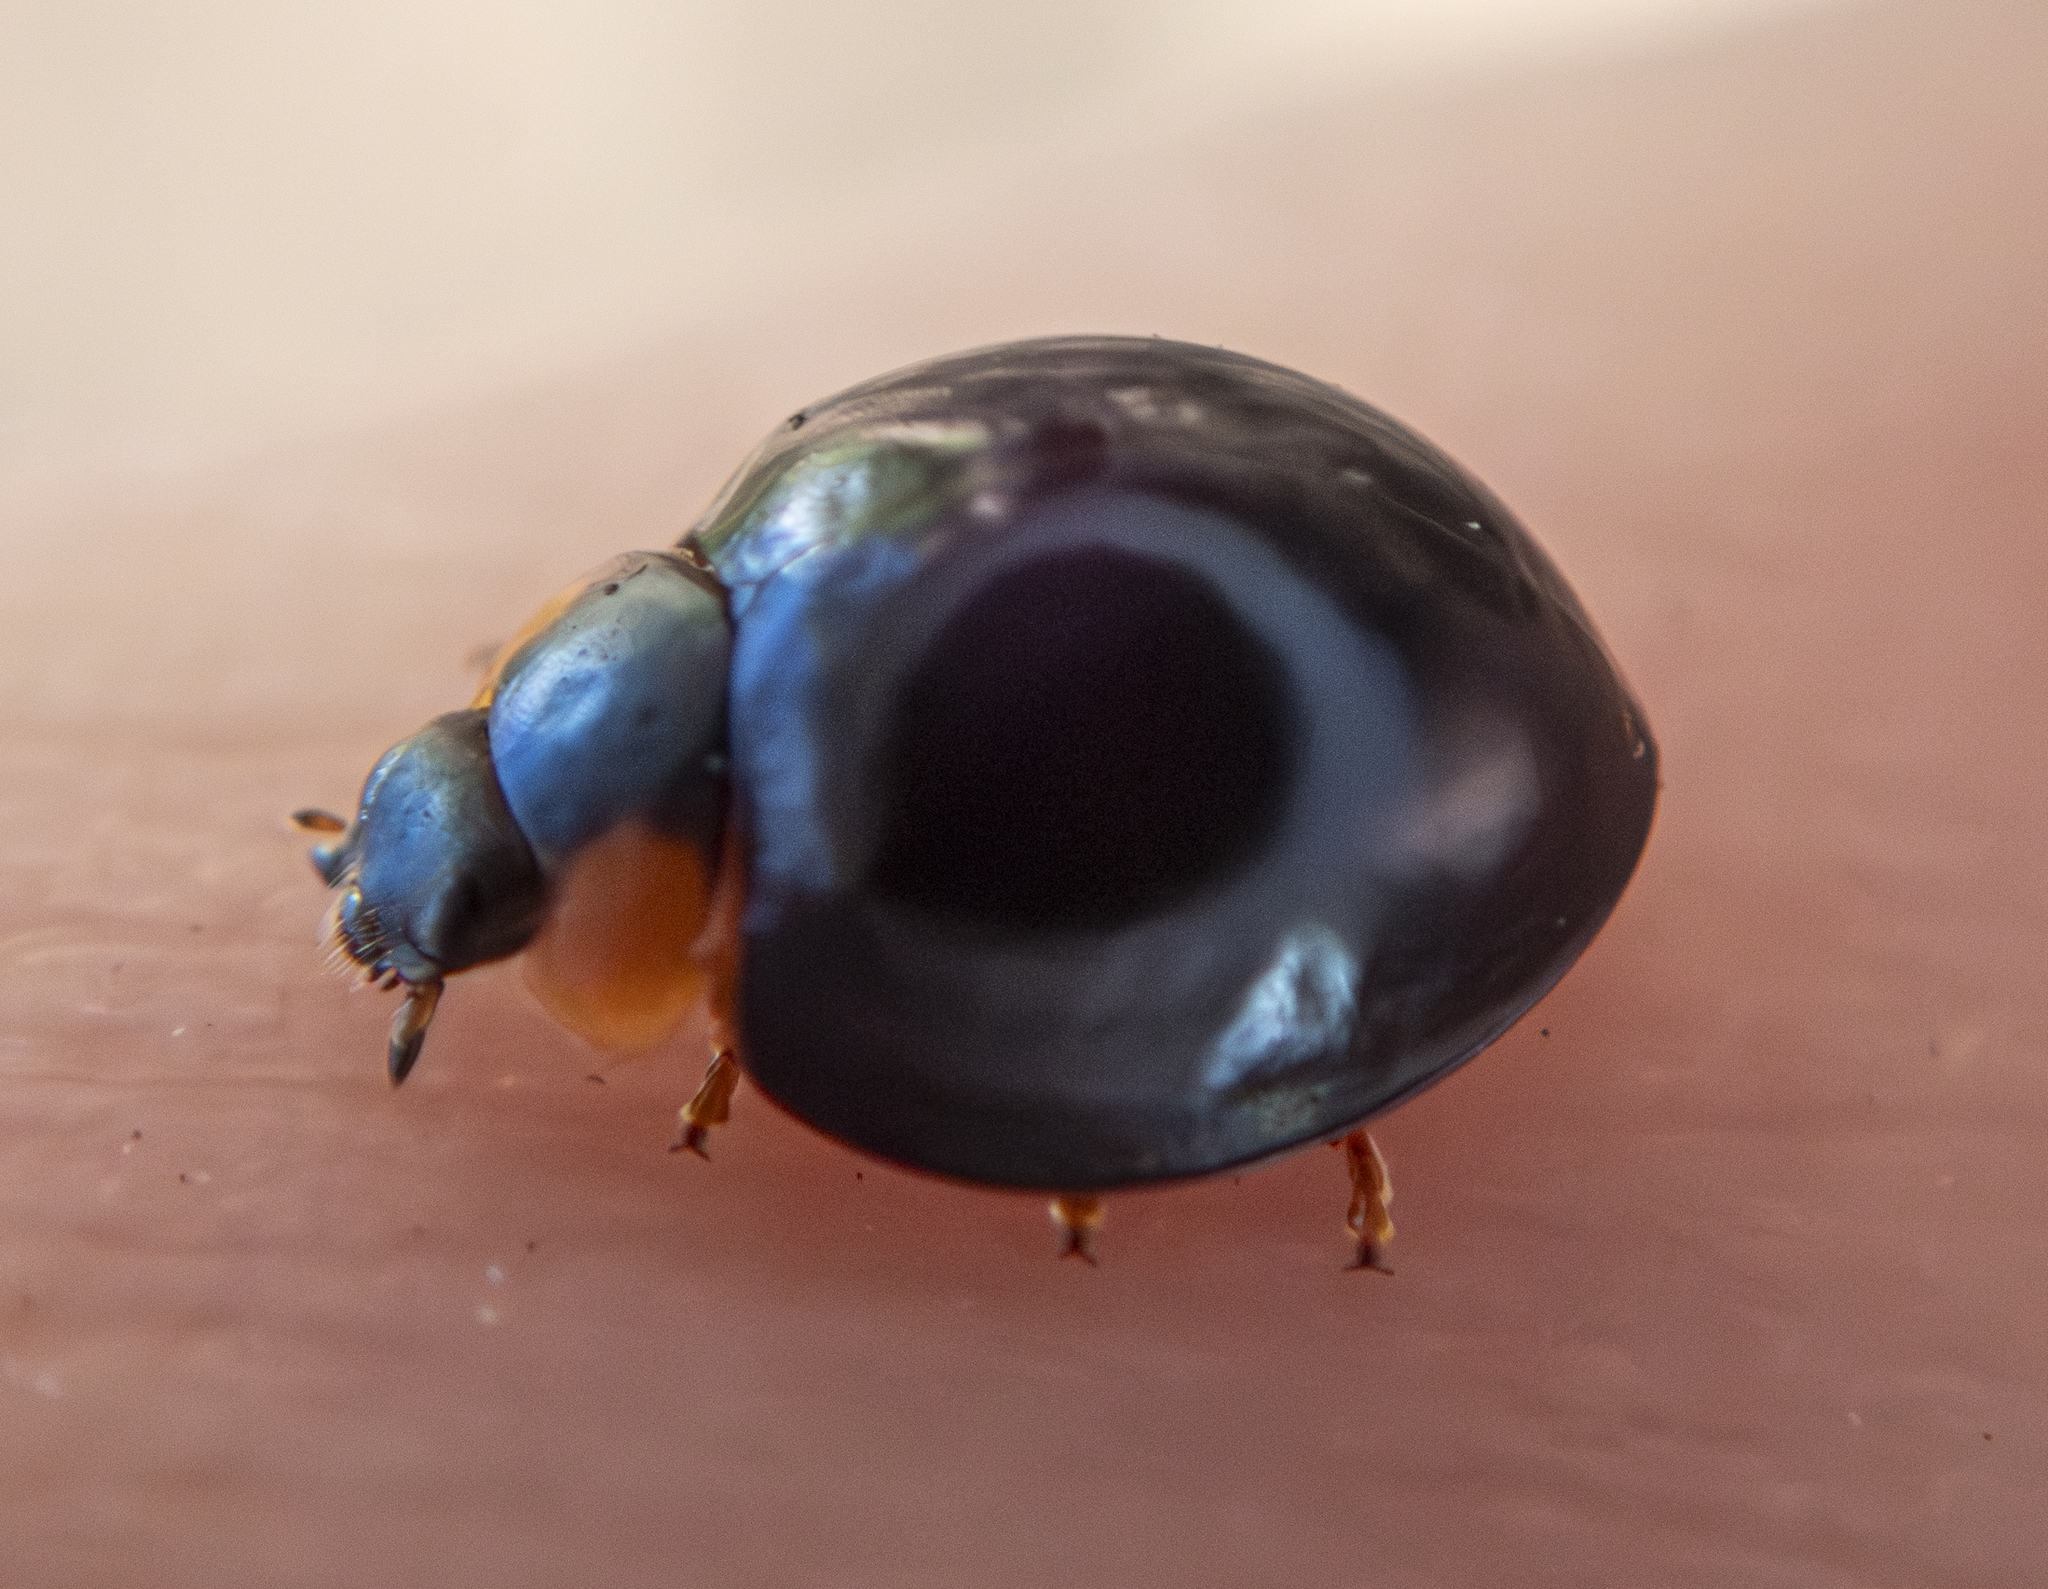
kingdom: Animalia
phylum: Arthropoda
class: Insecta
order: Coleoptera
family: Coccinellidae
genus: Curinus
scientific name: Curinus coeruleus
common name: Ladybird beetle
